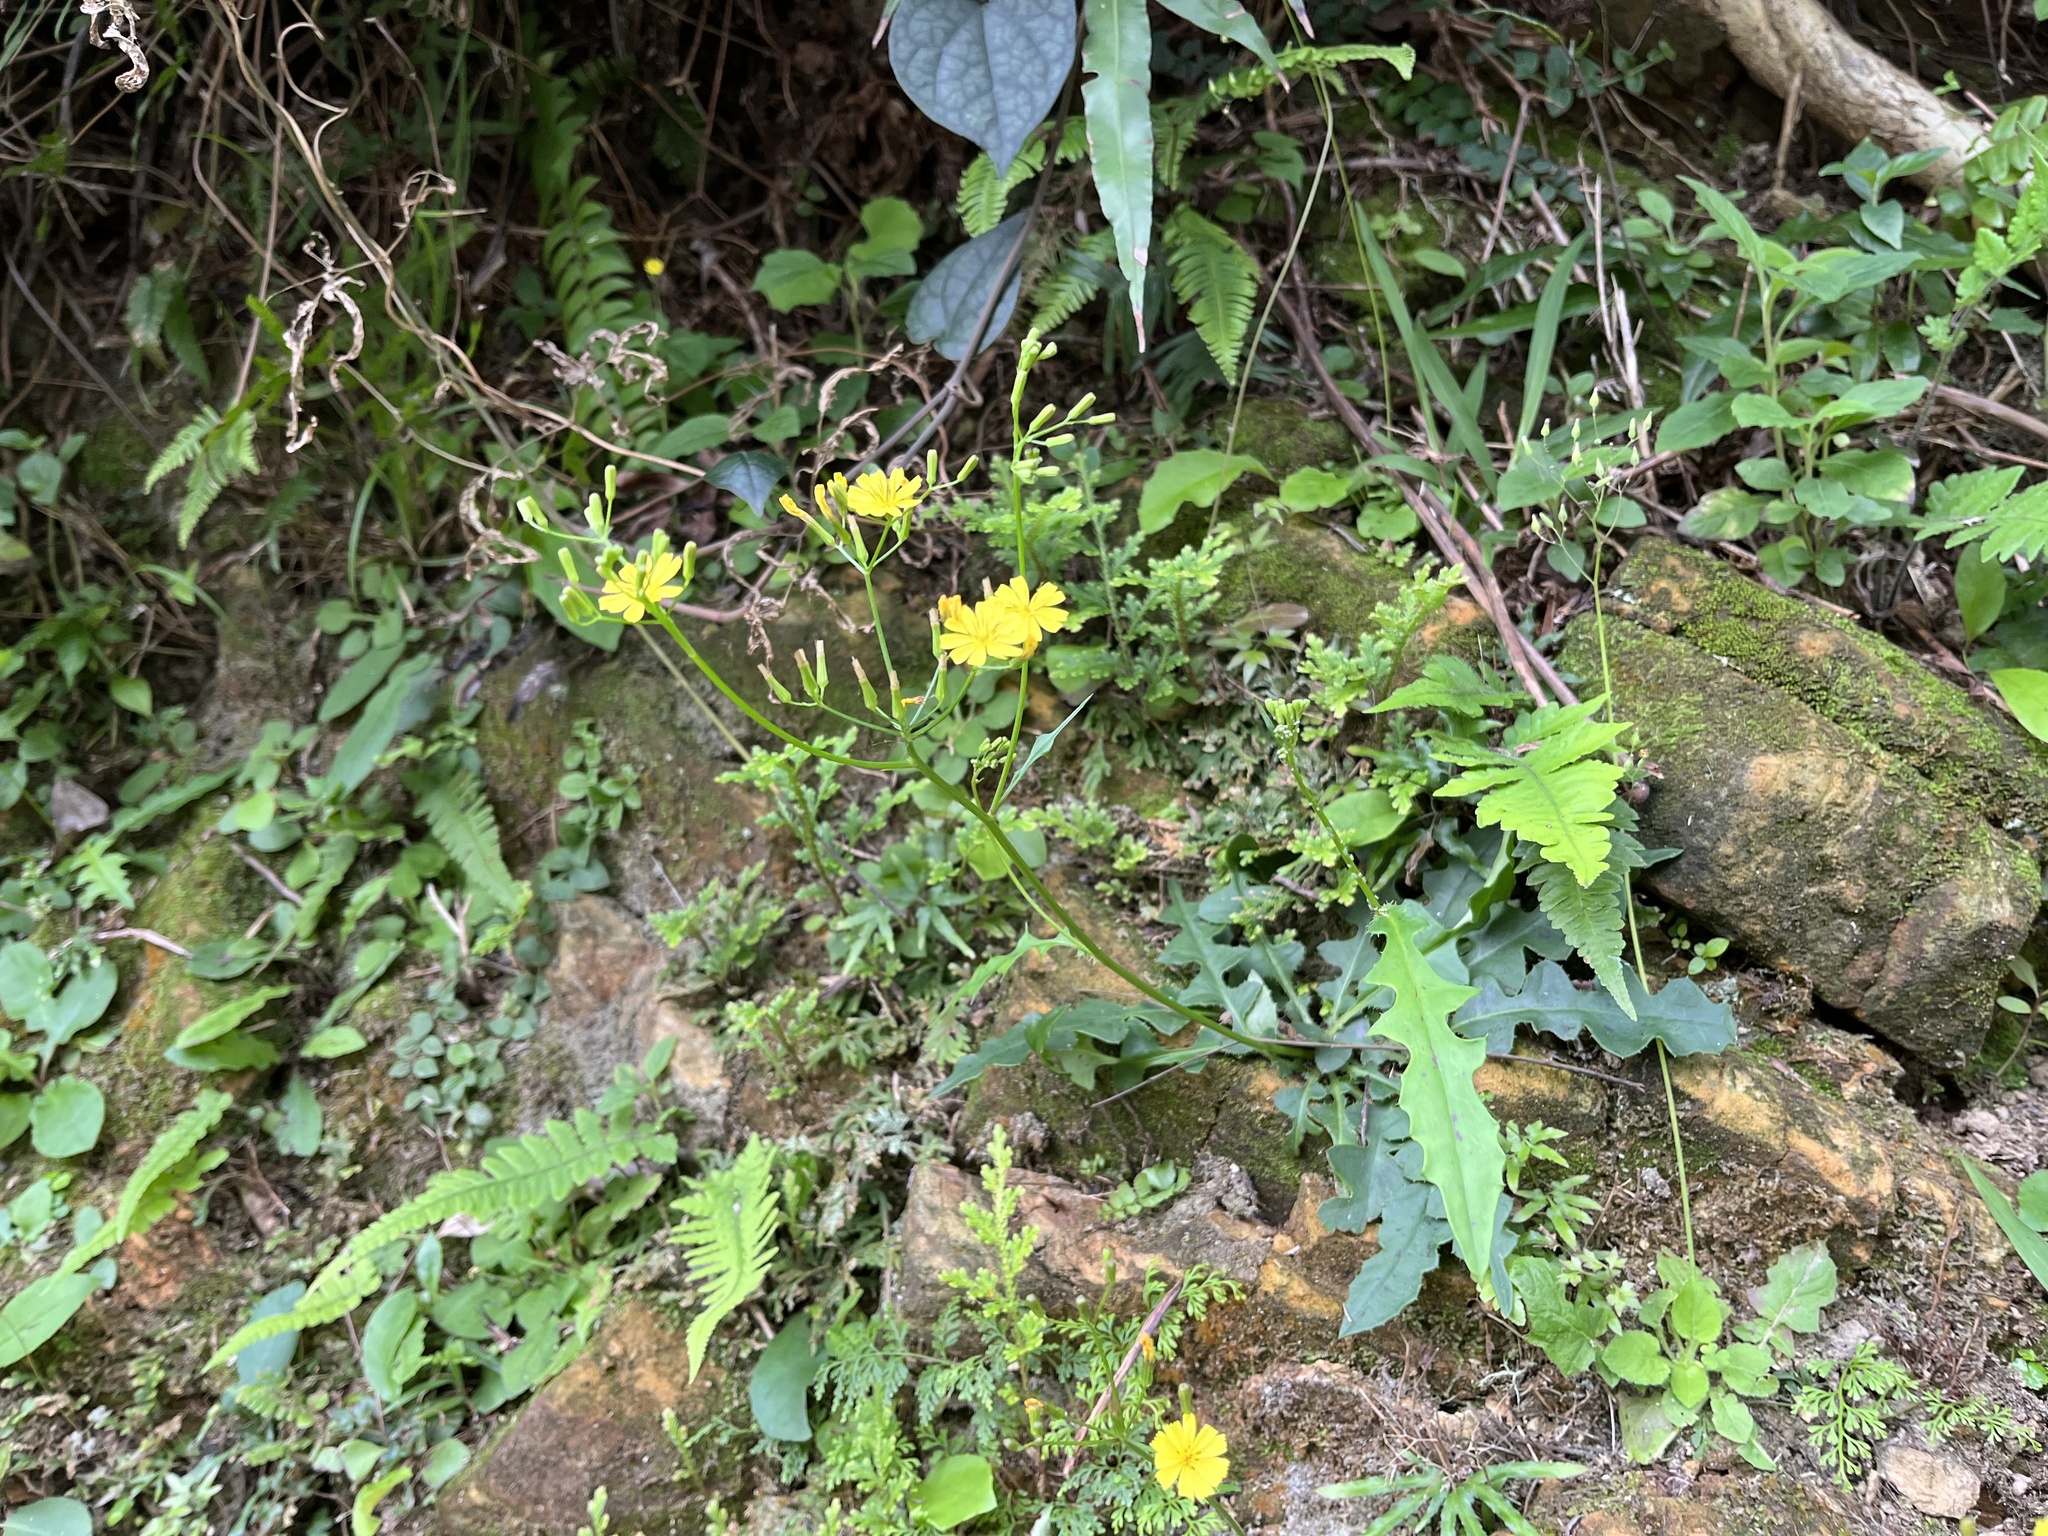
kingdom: Plantae
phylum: Tracheophyta
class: Magnoliopsida
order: Asterales
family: Asteraceae
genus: Ixeridium
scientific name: Ixeridium laevigatum
